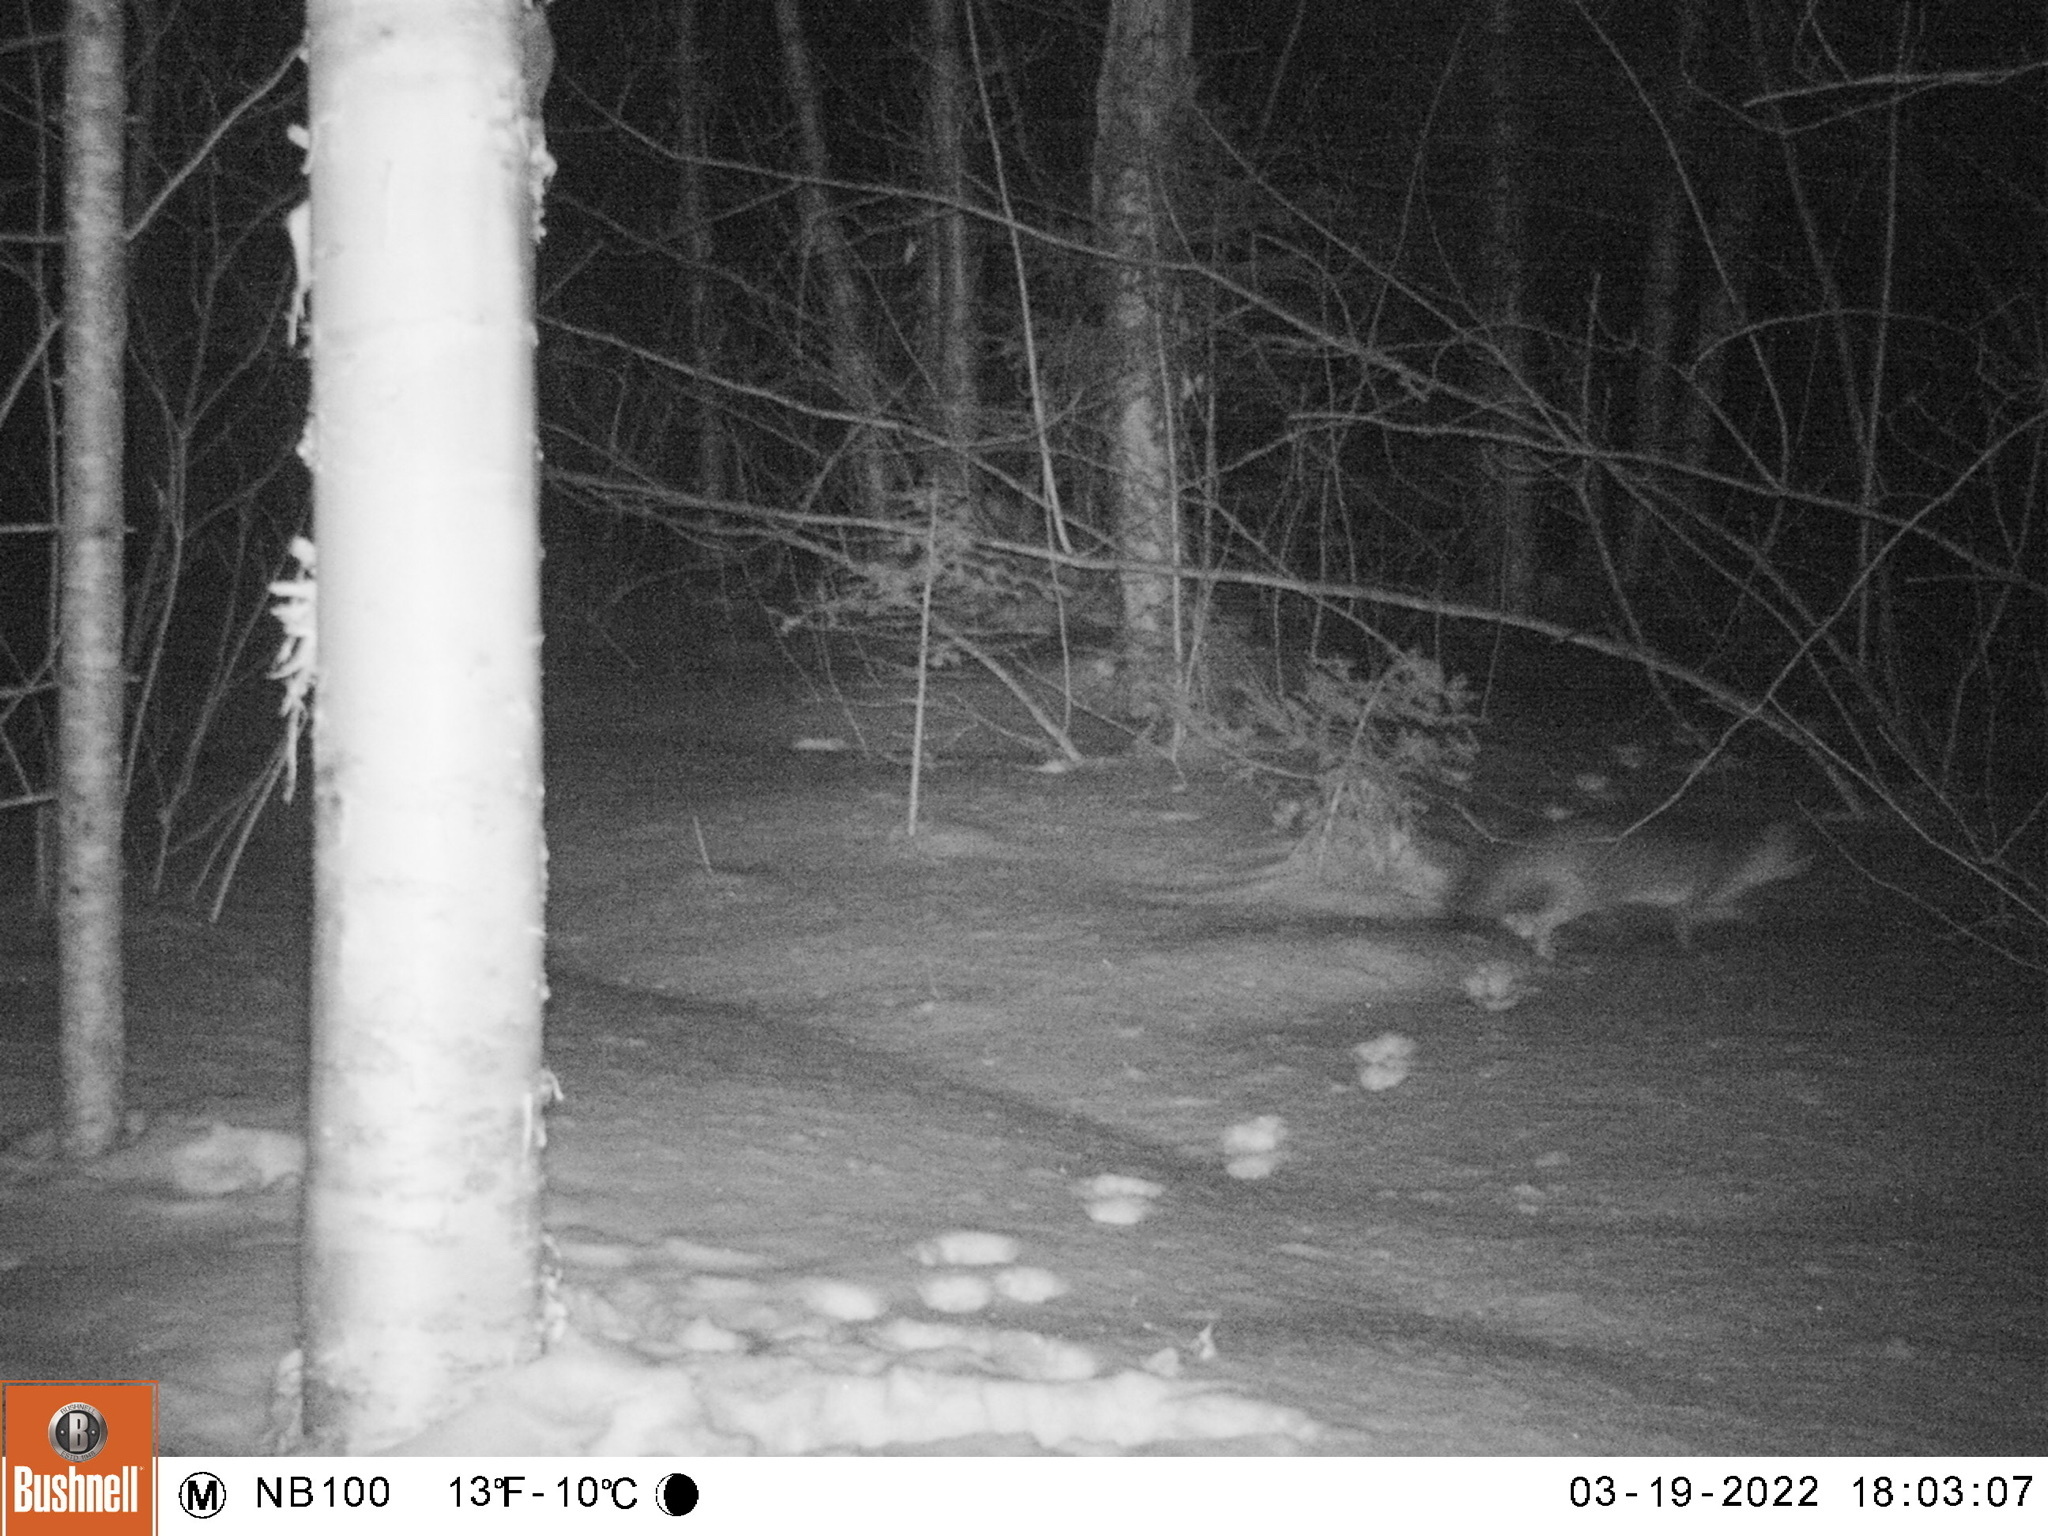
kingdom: Animalia
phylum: Chordata
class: Mammalia
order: Carnivora
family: Canidae
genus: Urocyon
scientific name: Urocyon cinereoargenteus
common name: Gray fox
